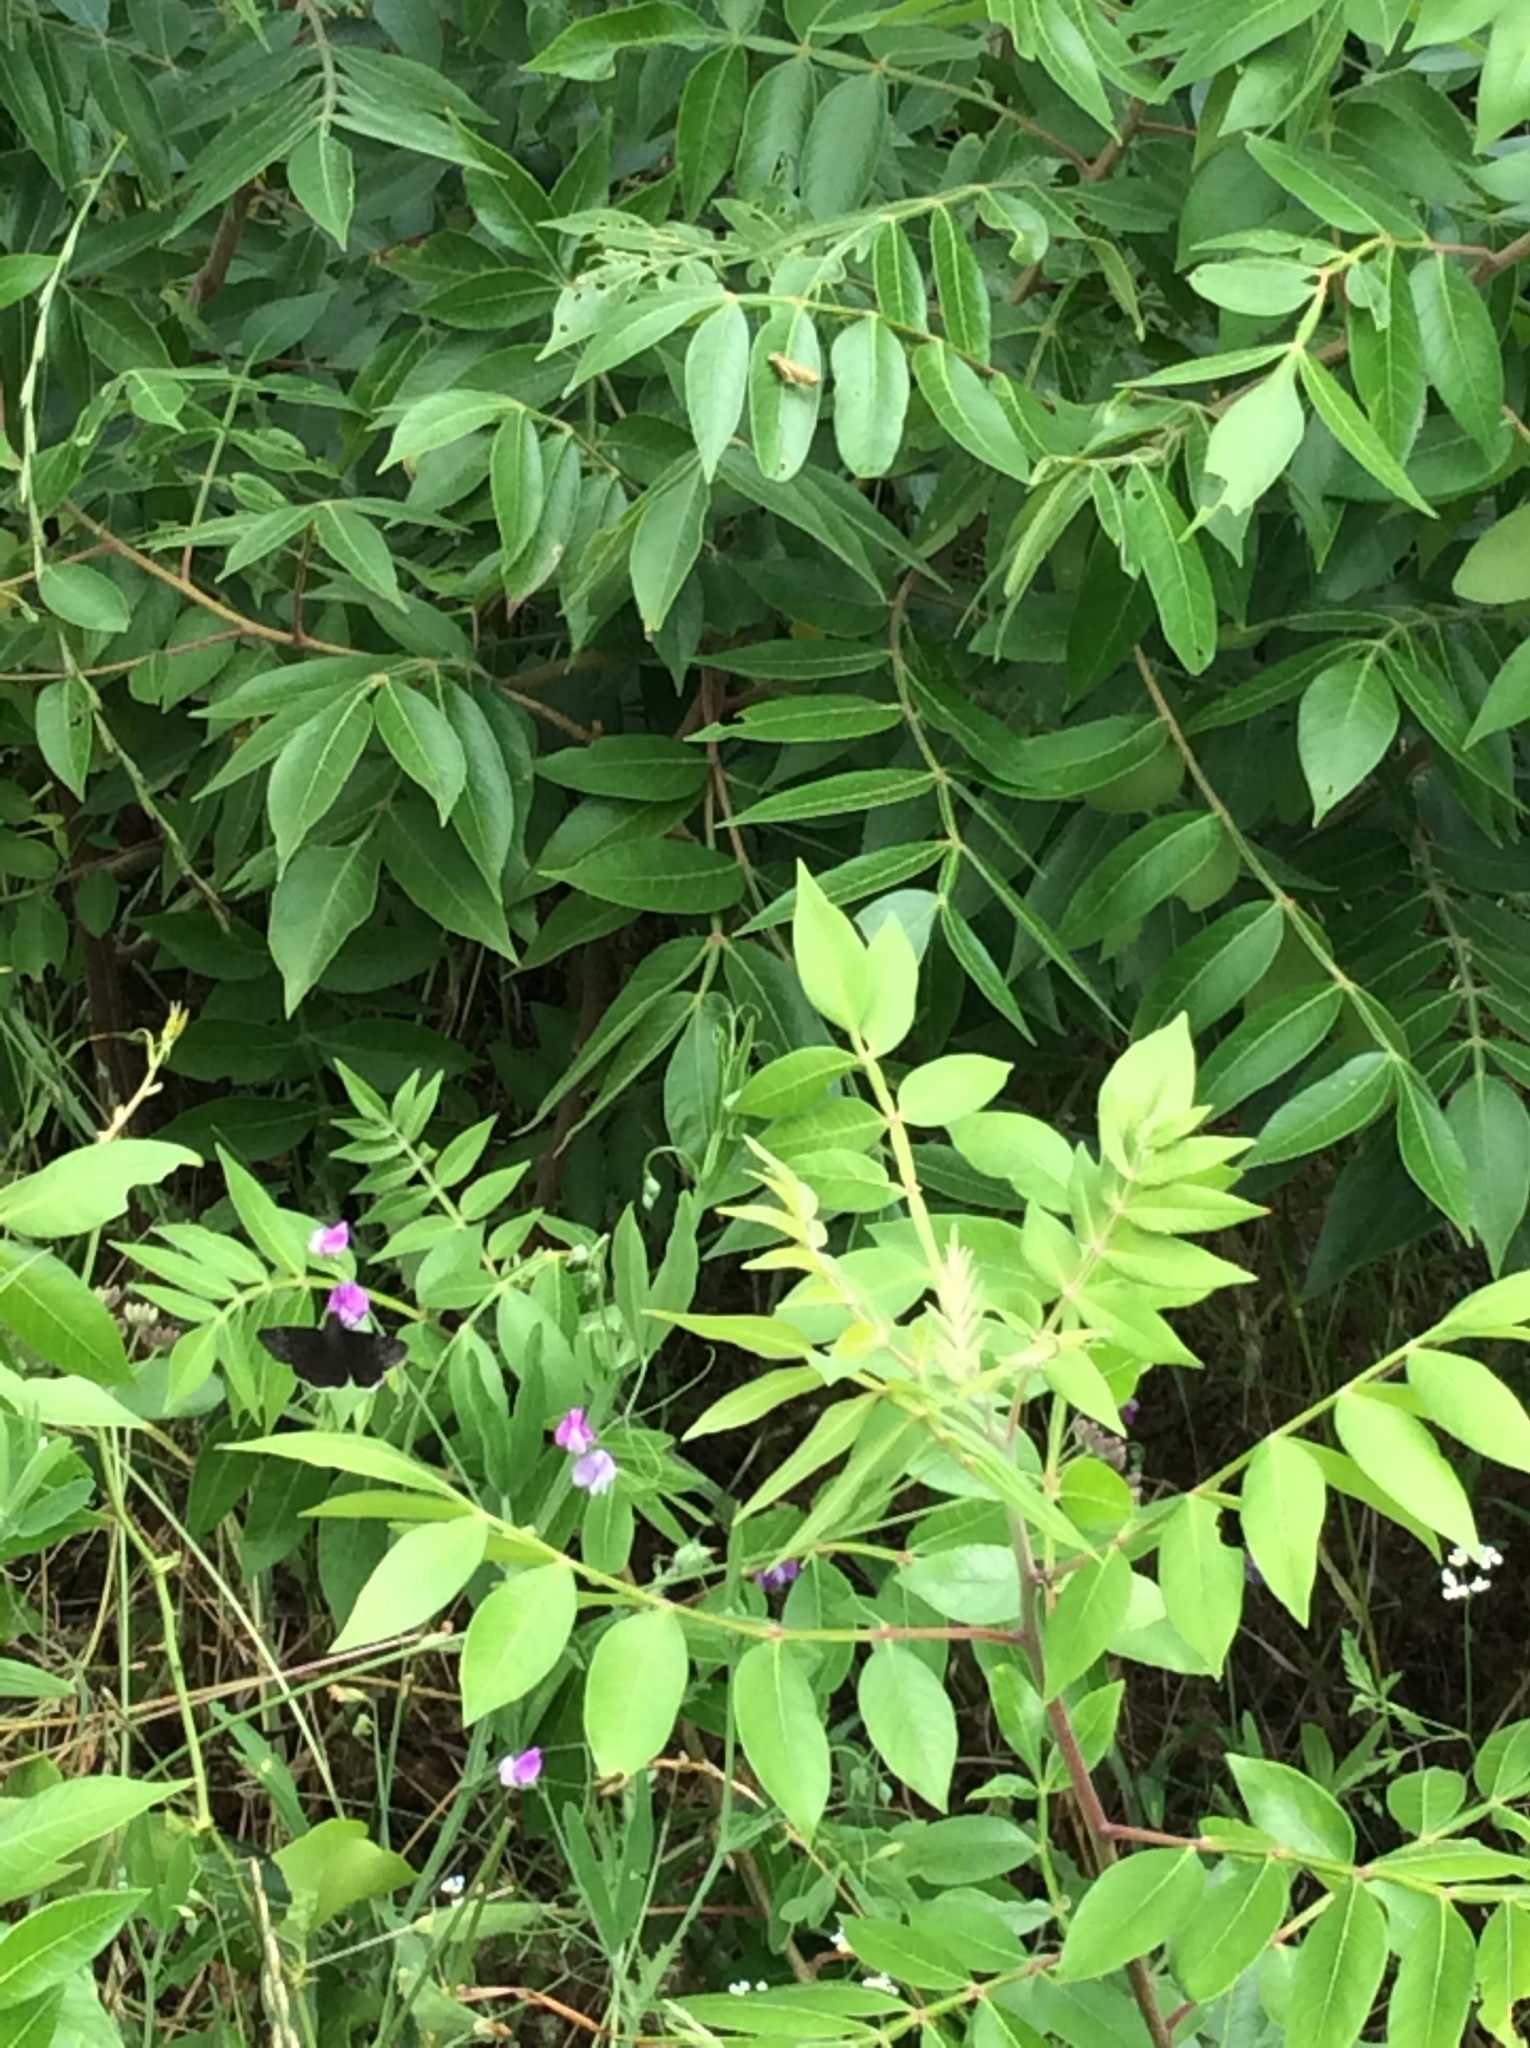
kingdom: Plantae
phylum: Tracheophyta
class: Magnoliopsida
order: Sapindales
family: Anacardiaceae
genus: Rhus
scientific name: Rhus copallina
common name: Shining sumac
